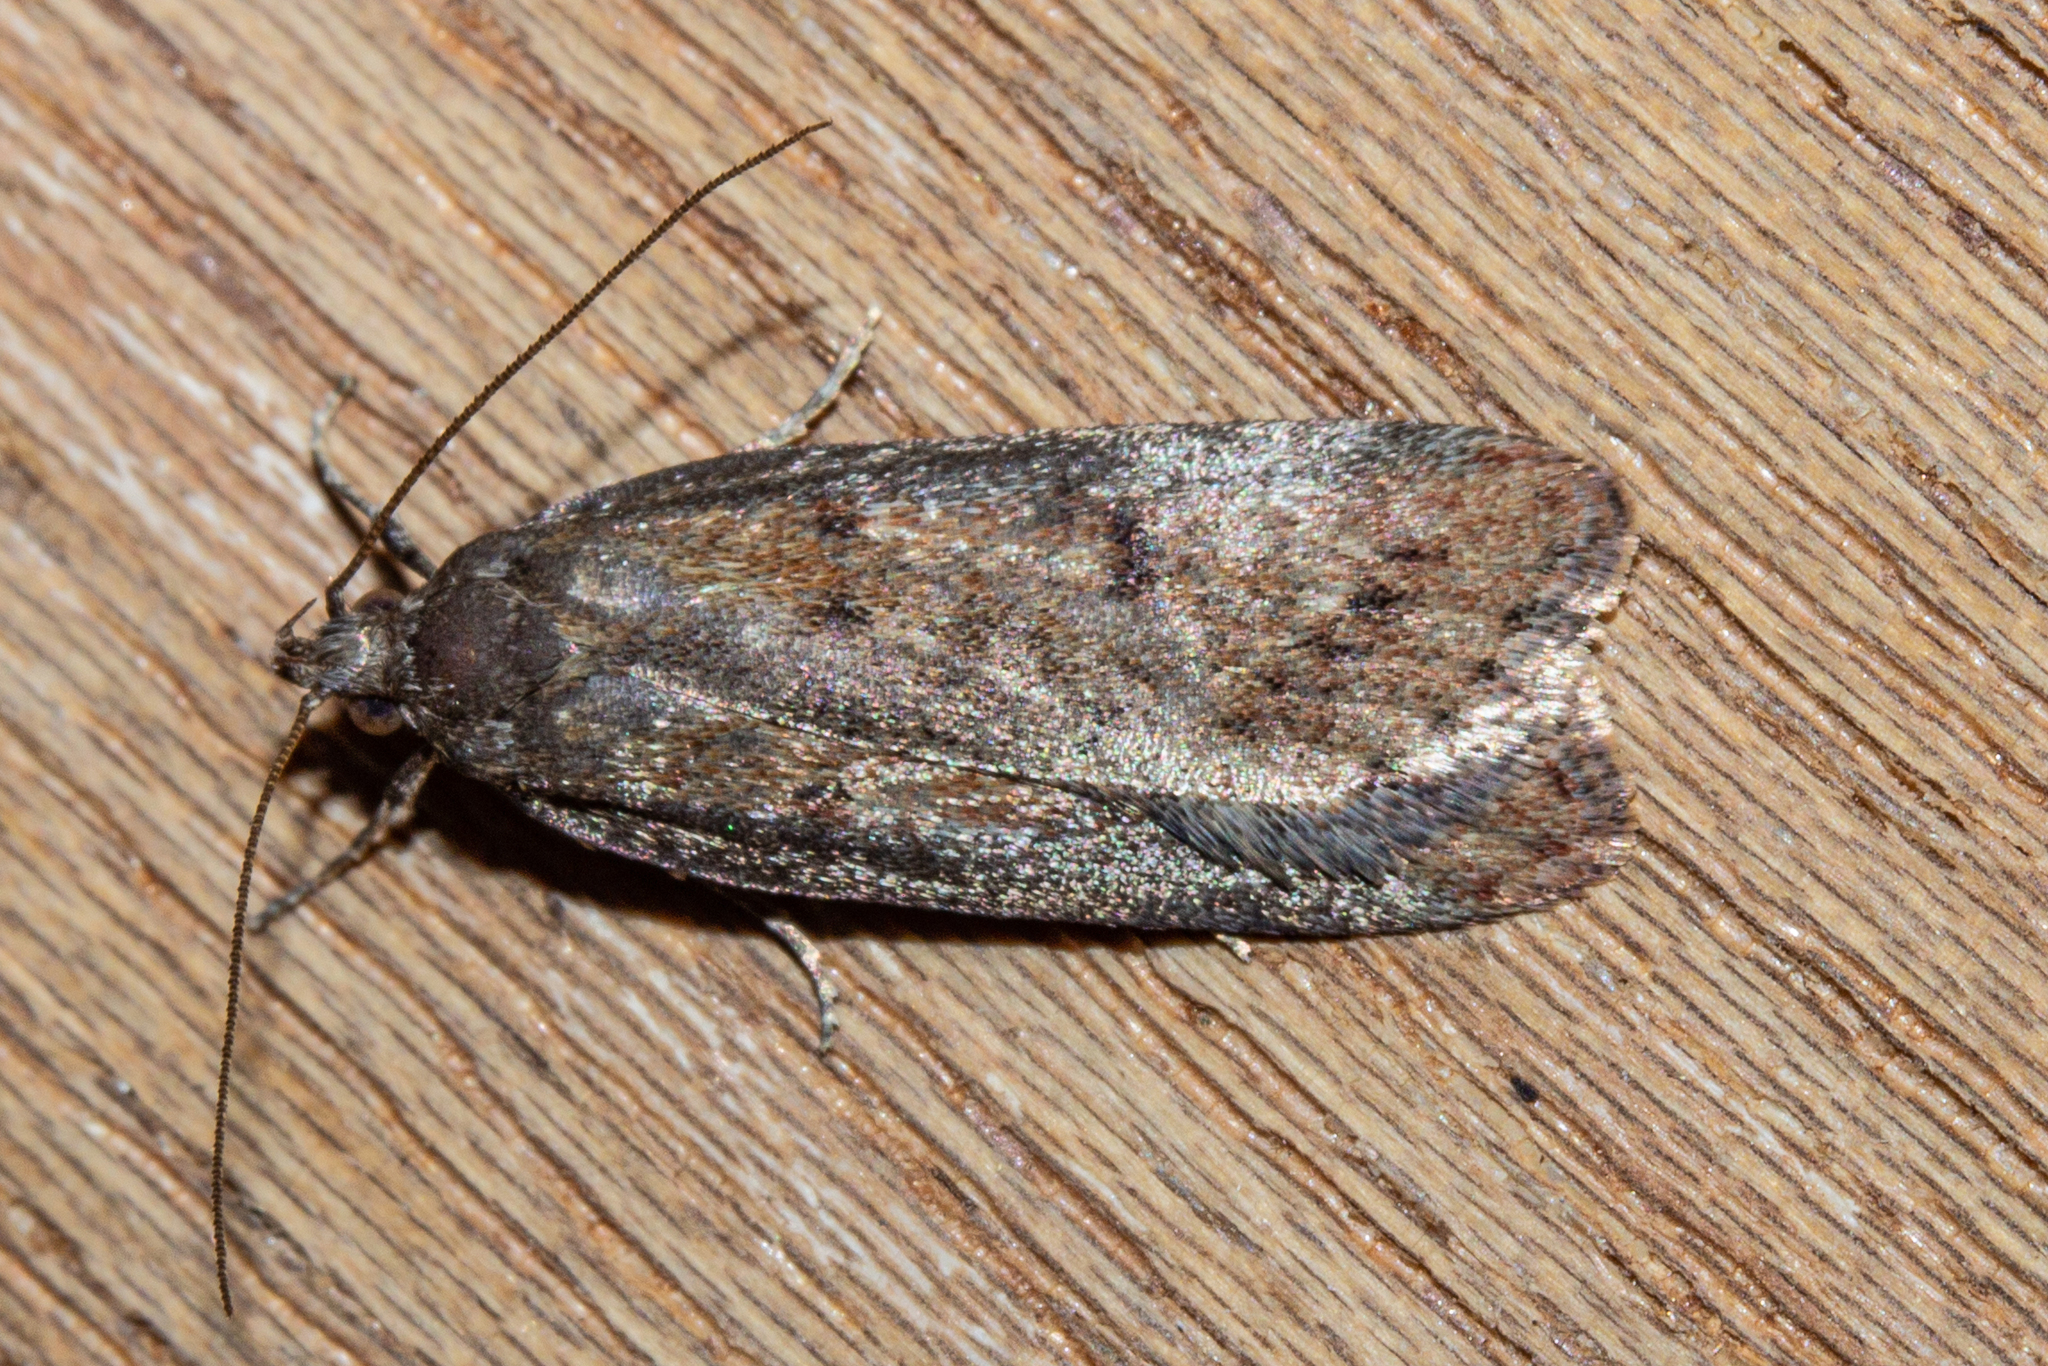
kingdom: Animalia
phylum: Arthropoda
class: Insecta
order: Lepidoptera
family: Depressariidae
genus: Phaeosaces
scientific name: Phaeosaces apocrypta
